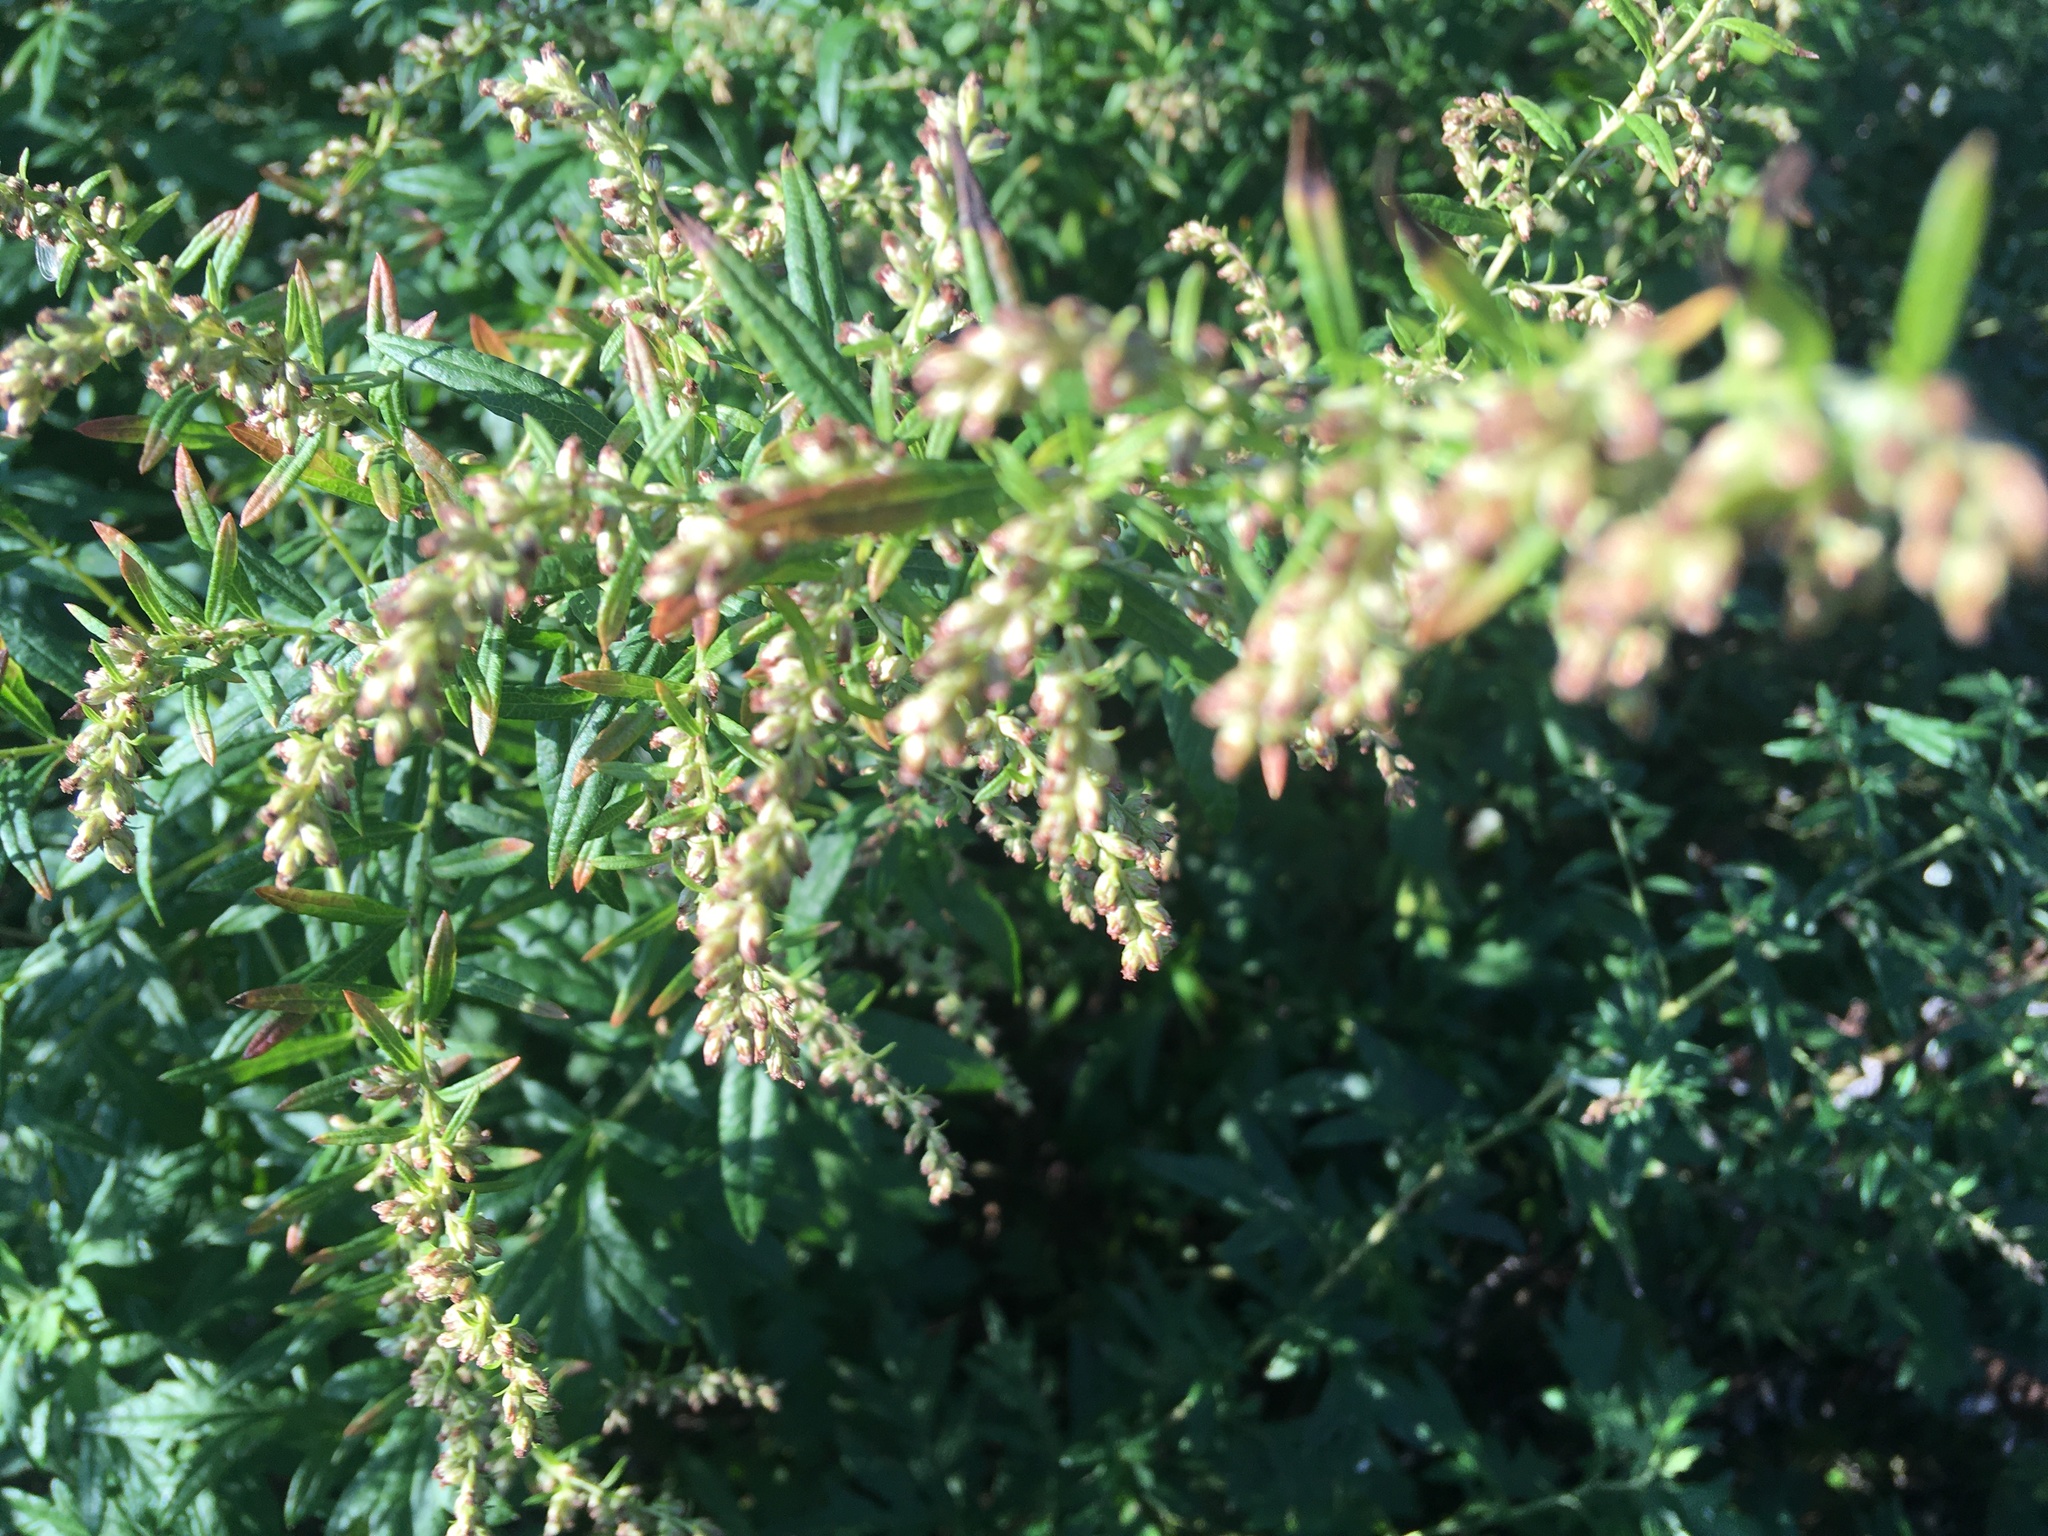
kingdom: Plantae
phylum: Tracheophyta
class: Magnoliopsida
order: Asterales
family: Asteraceae
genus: Artemisia
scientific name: Artemisia vulgaris
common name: Mugwort
